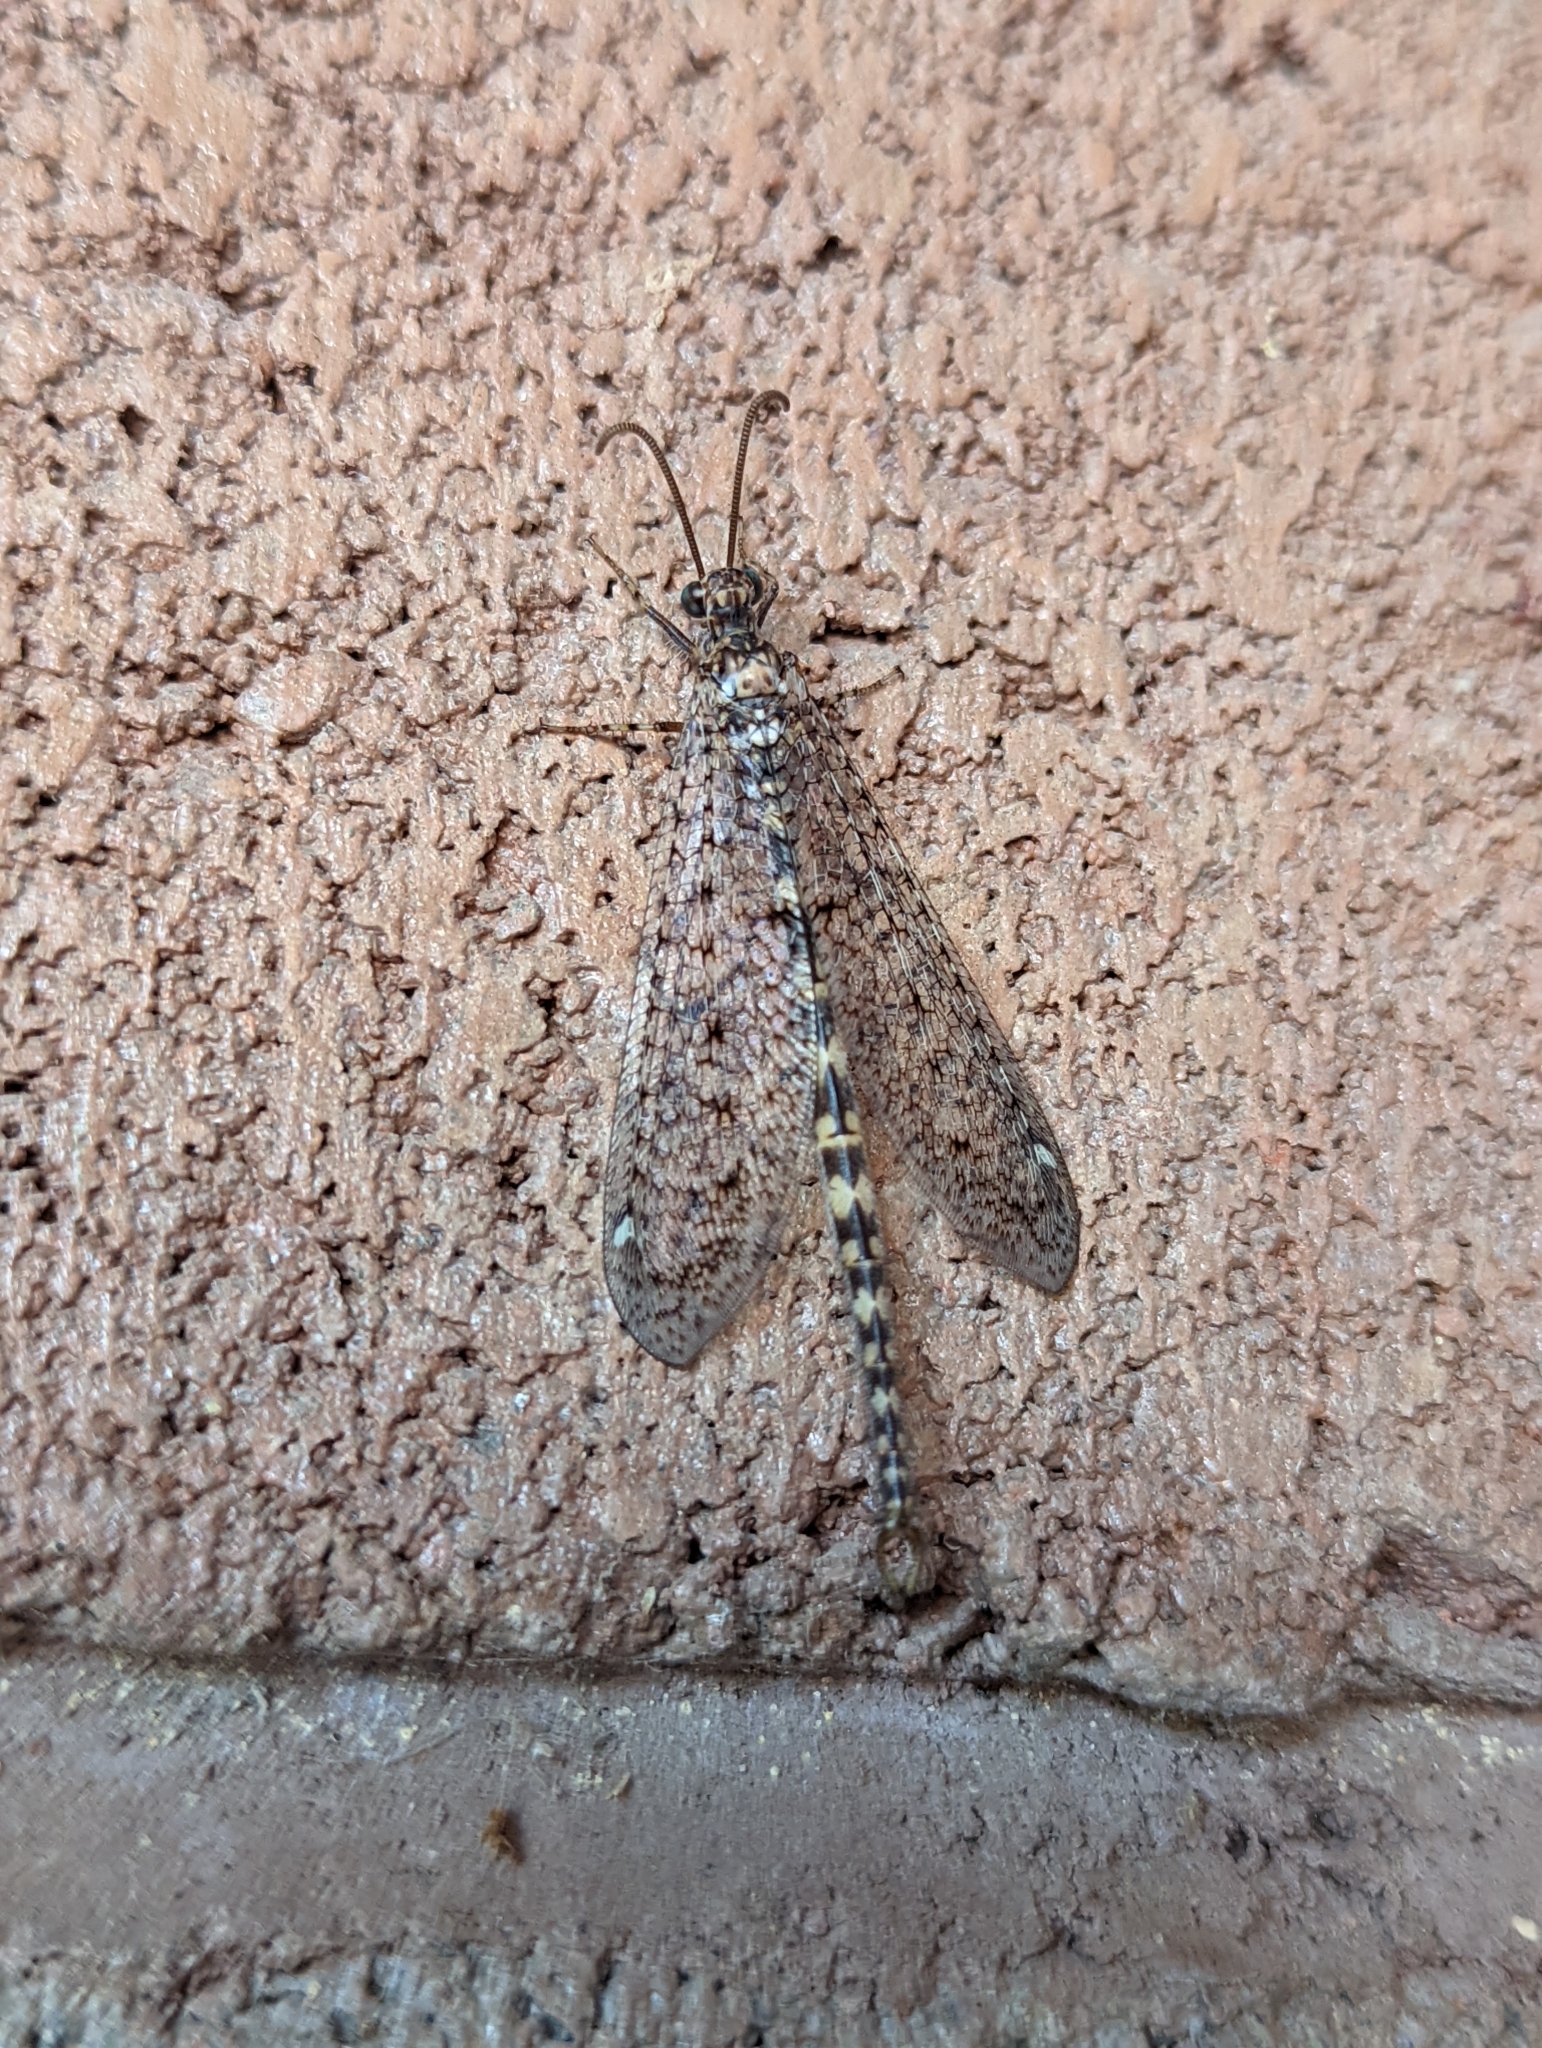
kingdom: Animalia
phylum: Arthropoda
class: Insecta
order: Neuroptera
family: Myrmeleontidae
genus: Brachynemurus
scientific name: Brachynemurus sackeni
